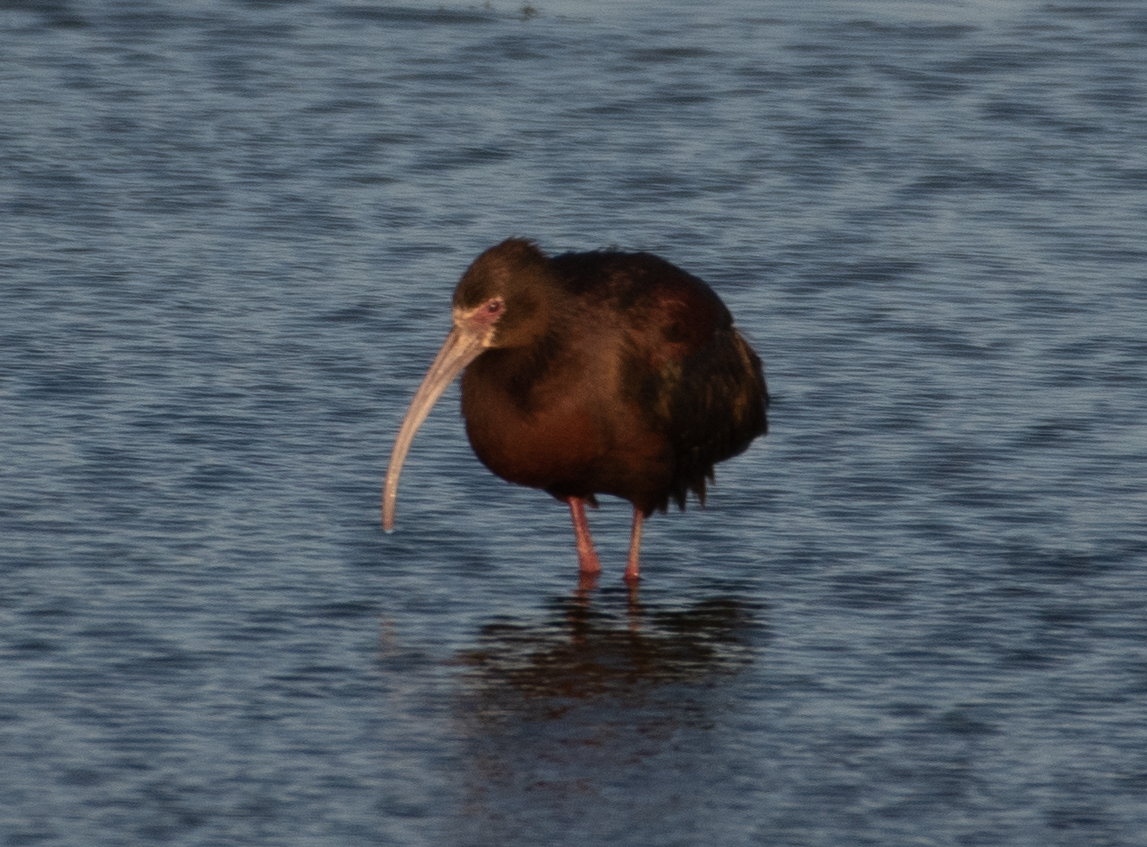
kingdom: Animalia
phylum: Chordata
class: Aves
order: Pelecaniformes
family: Threskiornithidae
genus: Plegadis
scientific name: Plegadis chihi
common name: White-faced ibis
